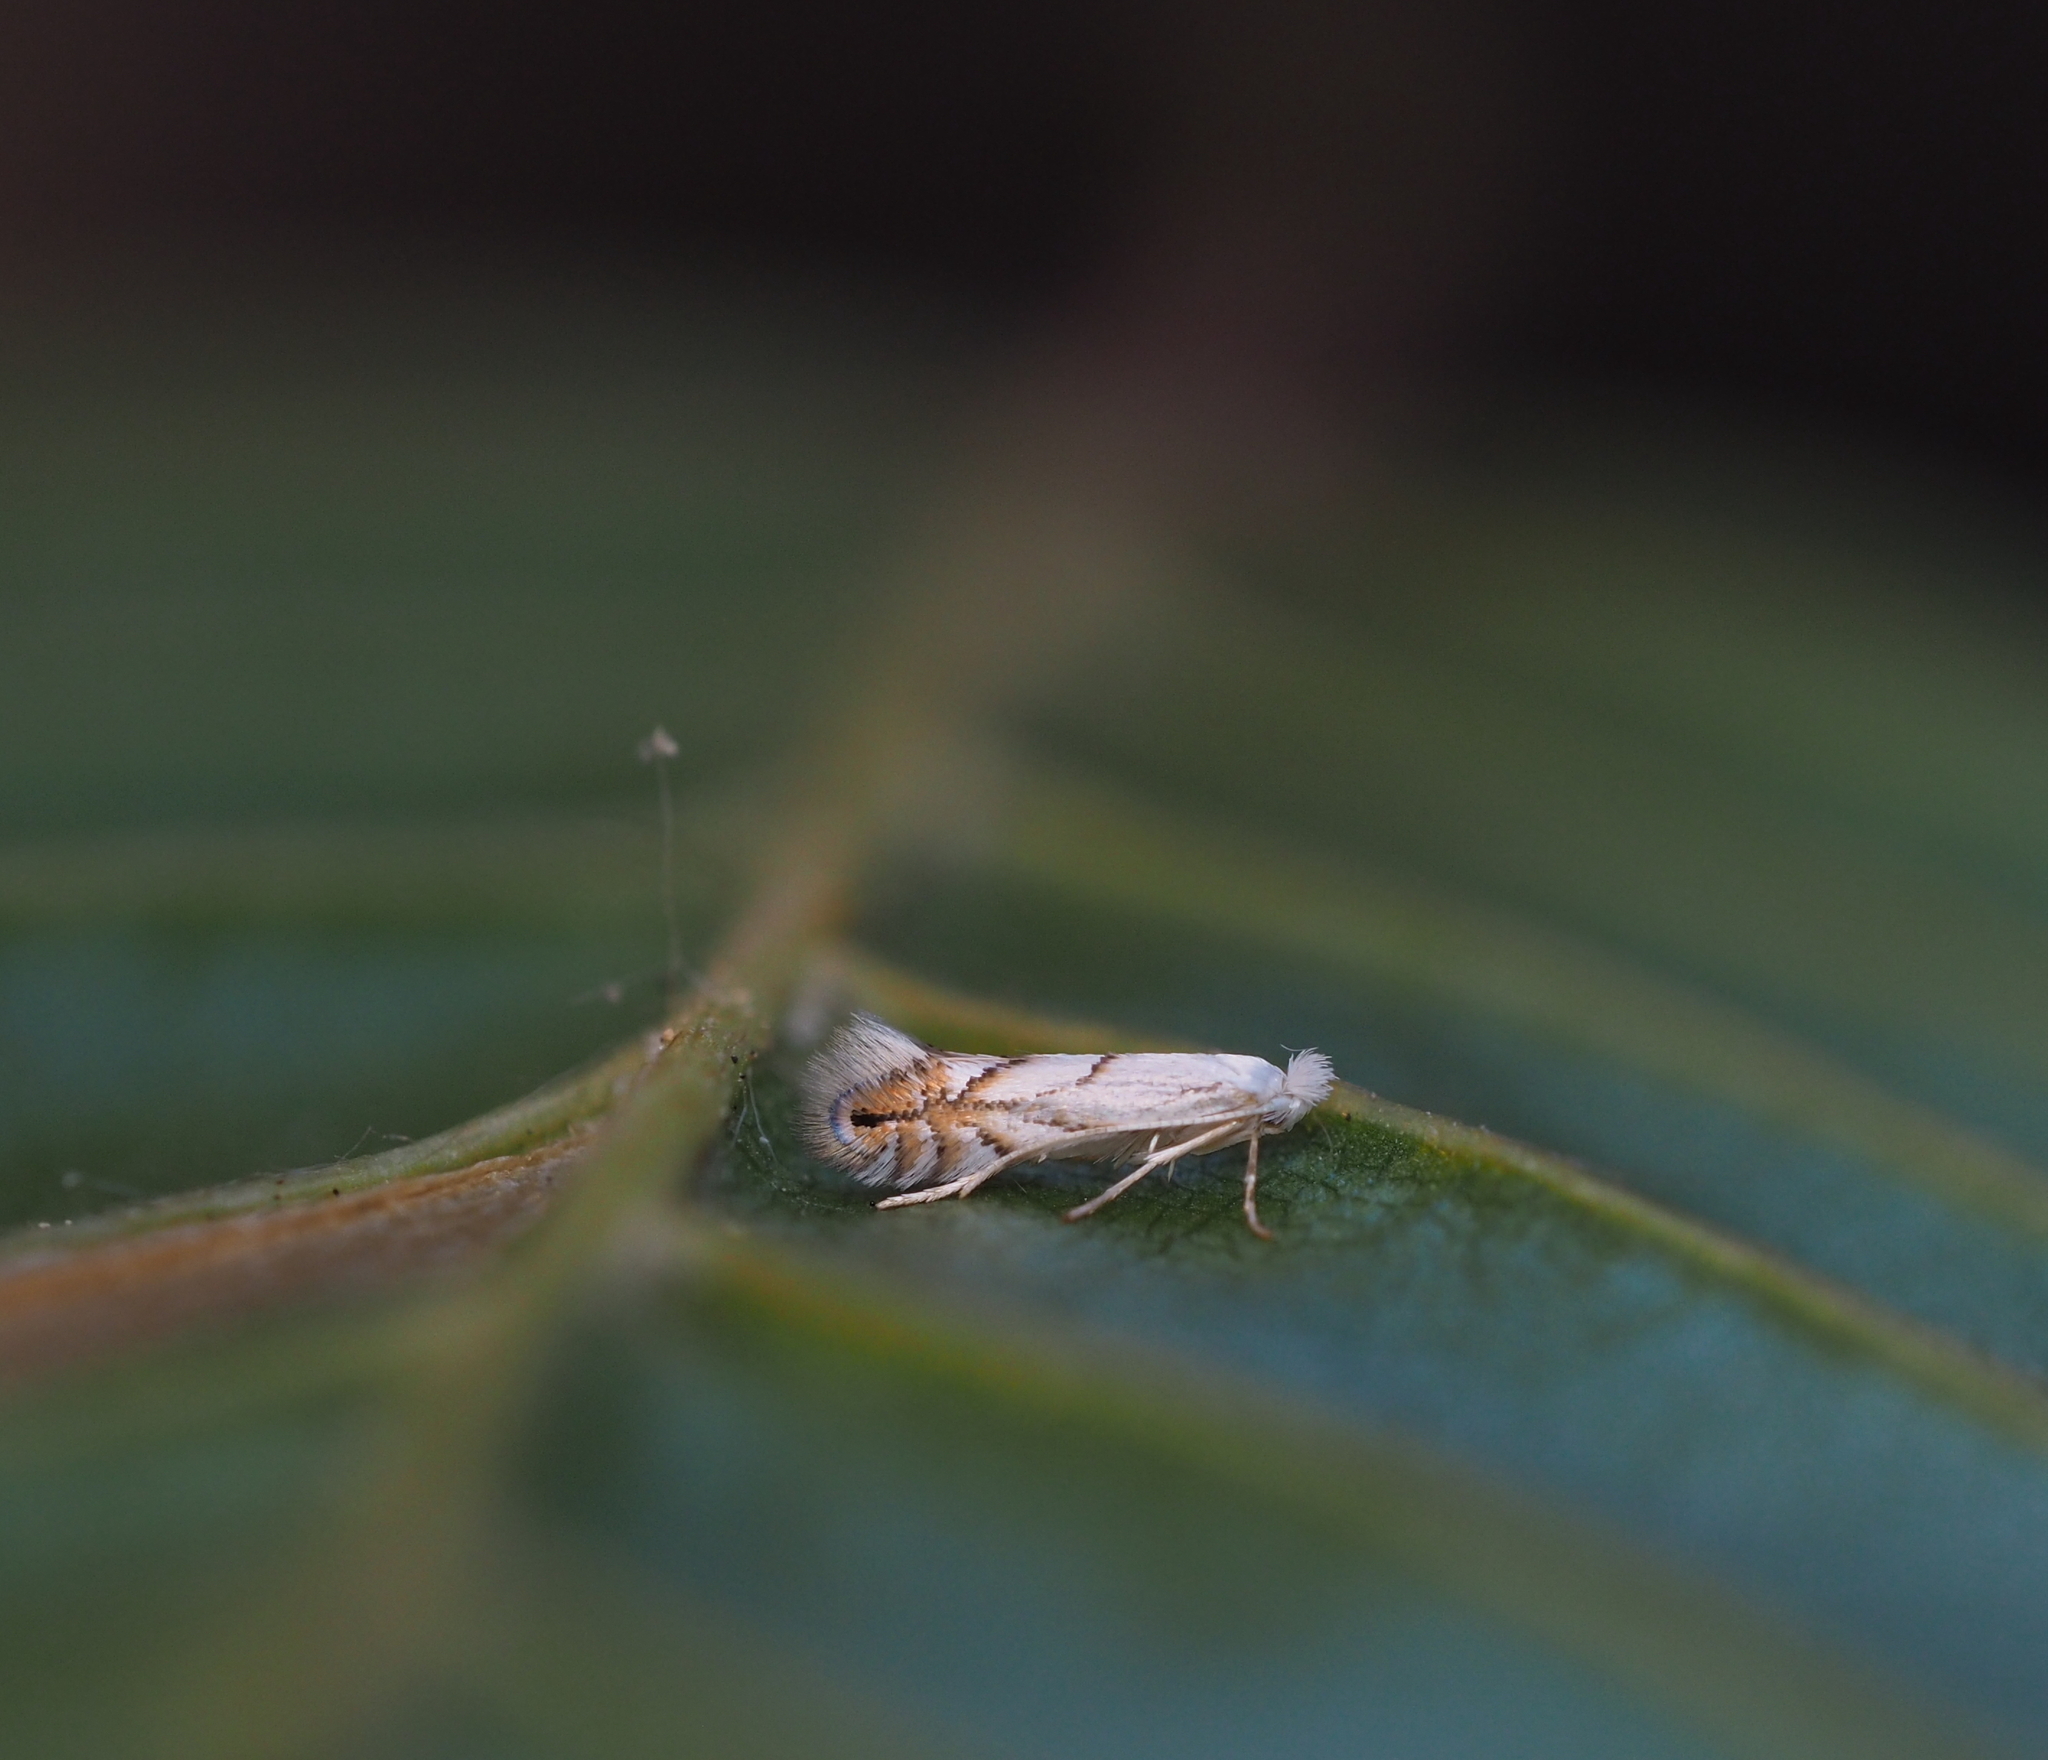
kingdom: Animalia
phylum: Arthropoda
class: Insecta
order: Lepidoptera
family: Gracillariidae
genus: Phyllonorycter
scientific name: Phyllonorycter tenerella
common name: Hornbeam midget
